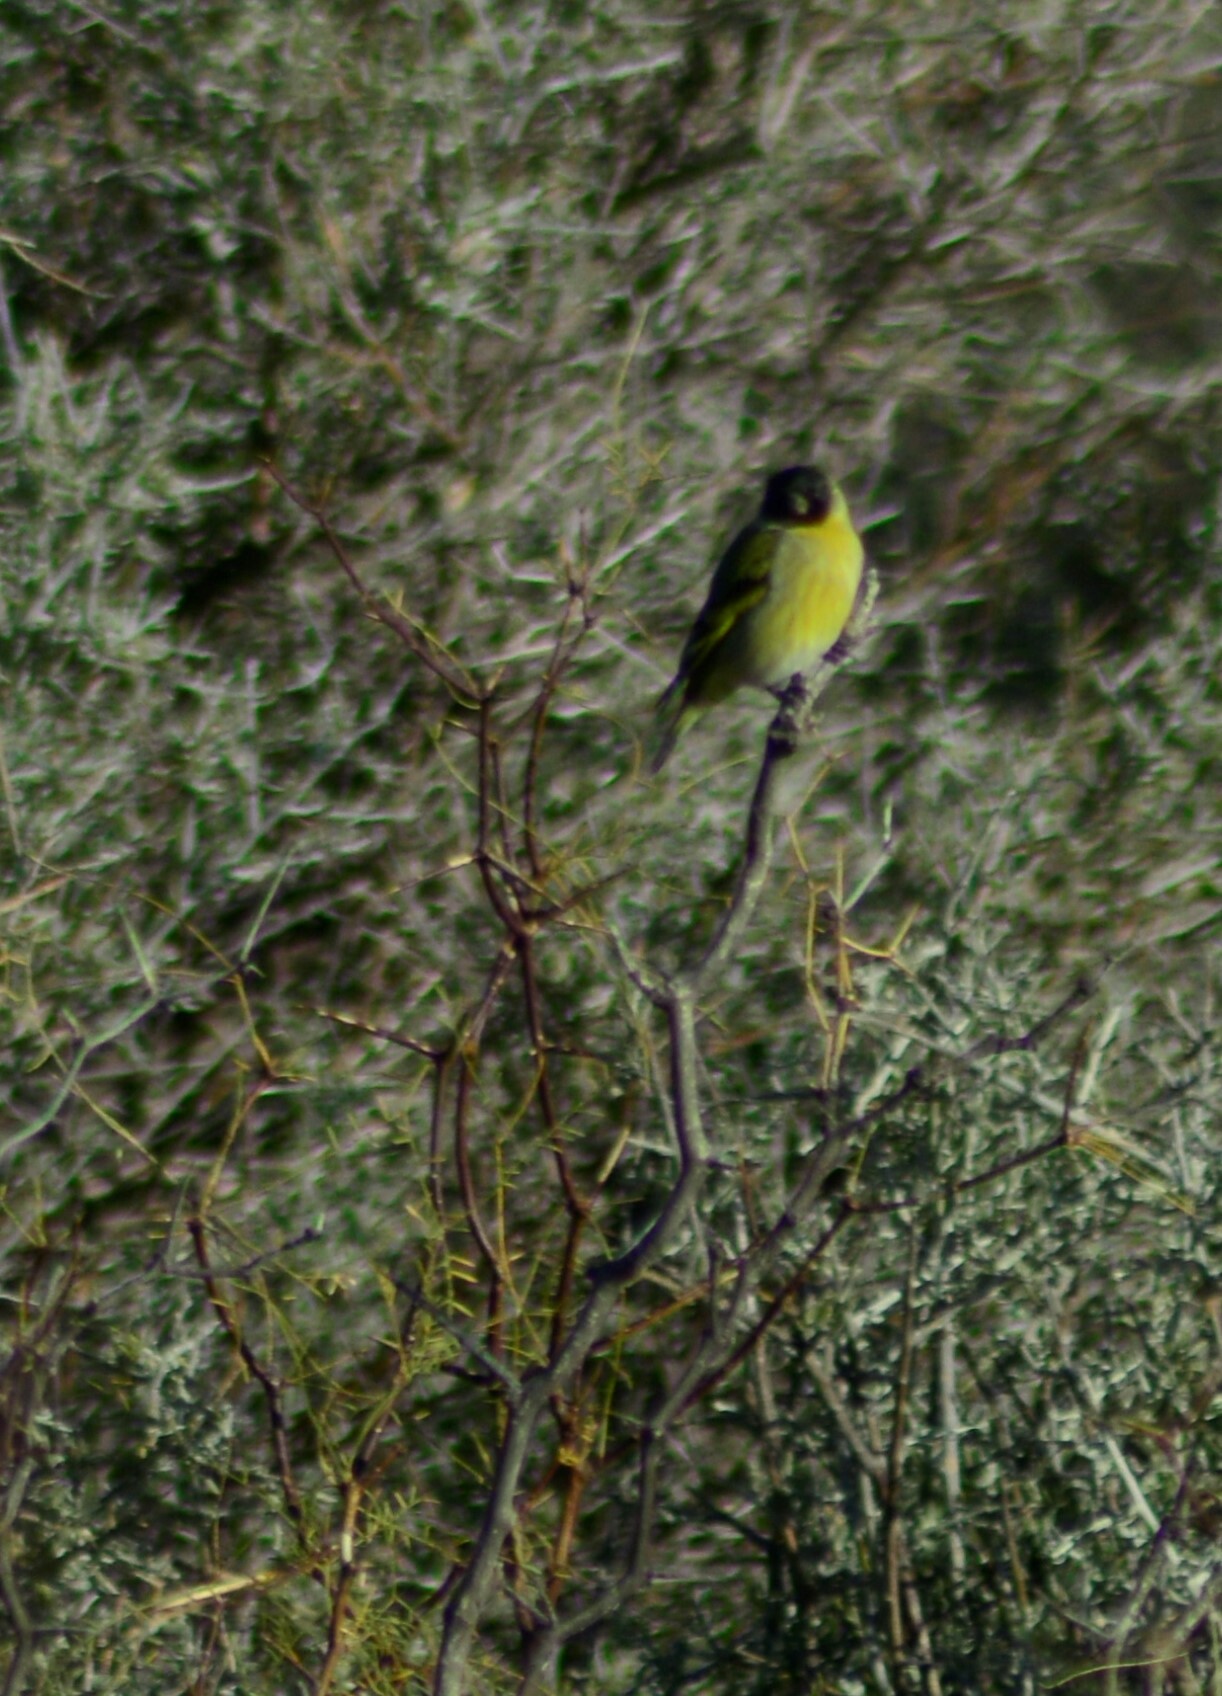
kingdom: Animalia
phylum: Chordata
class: Aves
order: Passeriformes
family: Fringillidae
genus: Spinus
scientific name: Spinus magellanicus
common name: Hooded siskin
